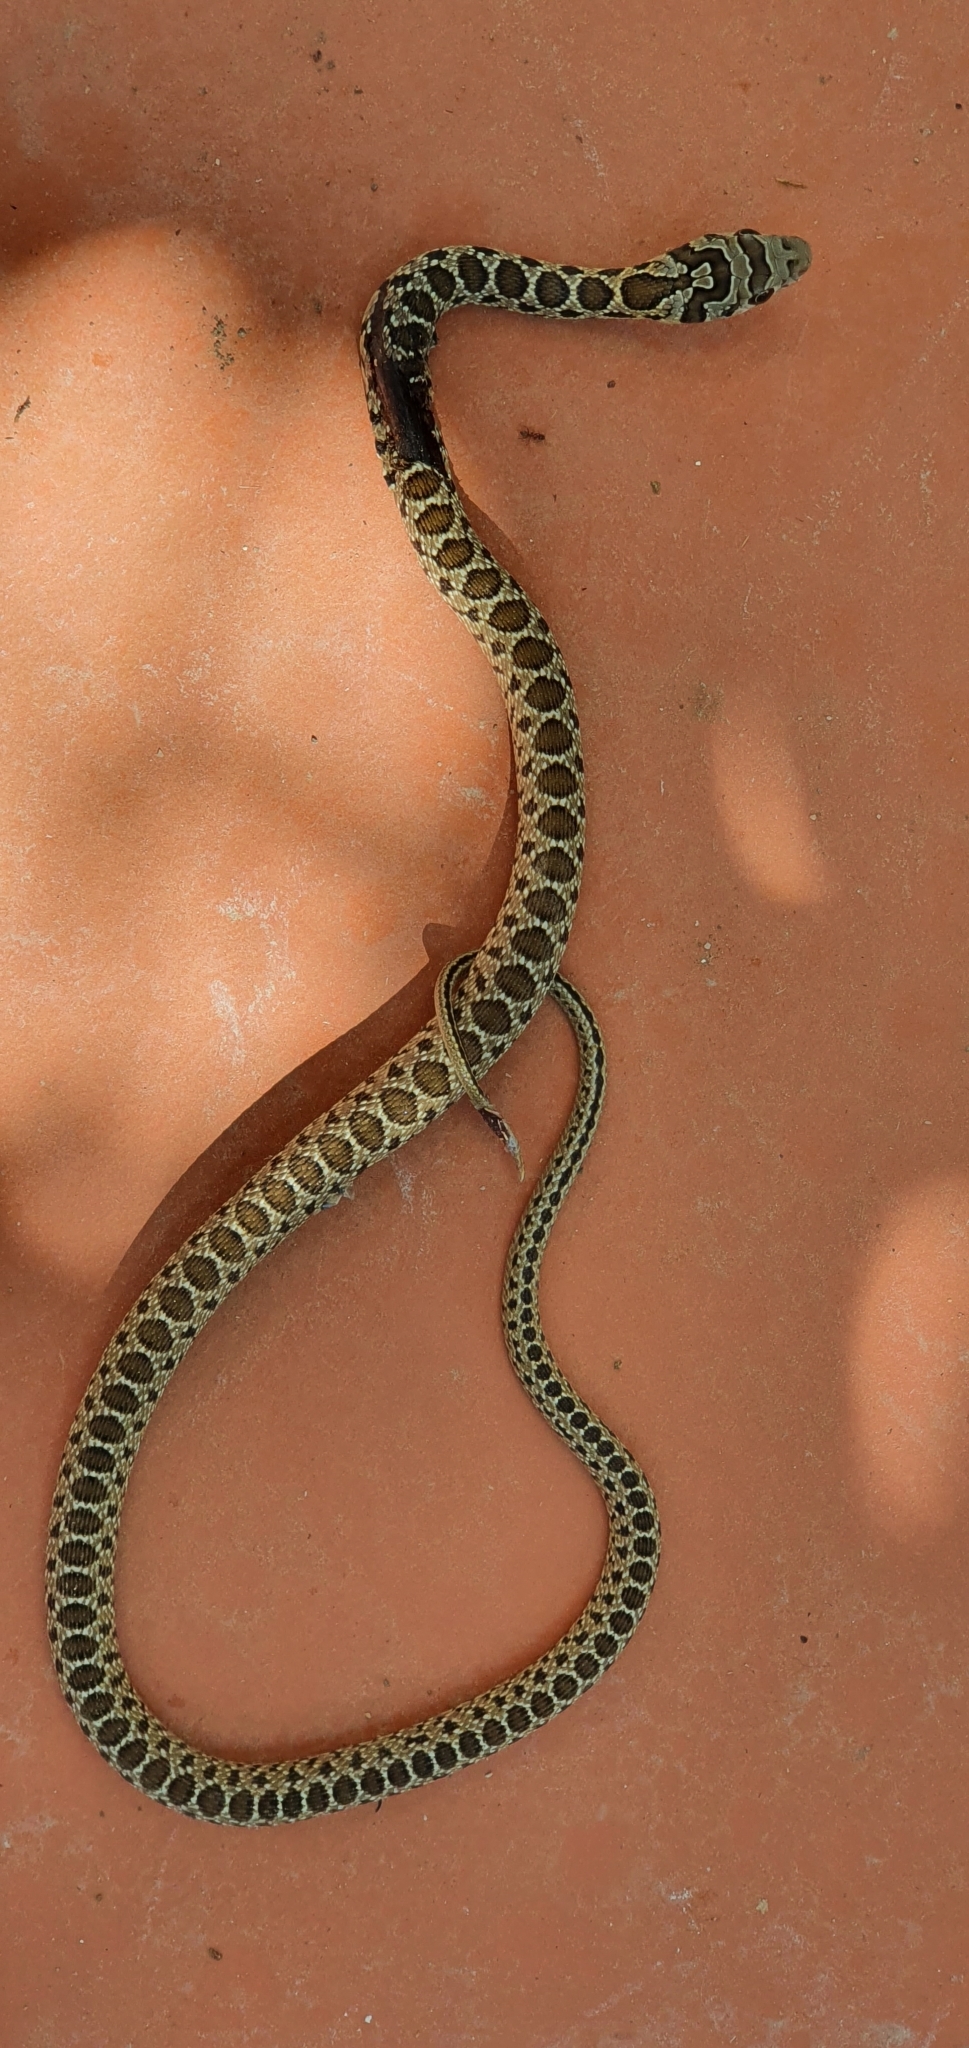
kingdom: Animalia
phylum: Chordata
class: Squamata
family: Colubridae
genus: Hemorrhois
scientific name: Hemorrhois hippocrepis
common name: Horseshoe whip snake
